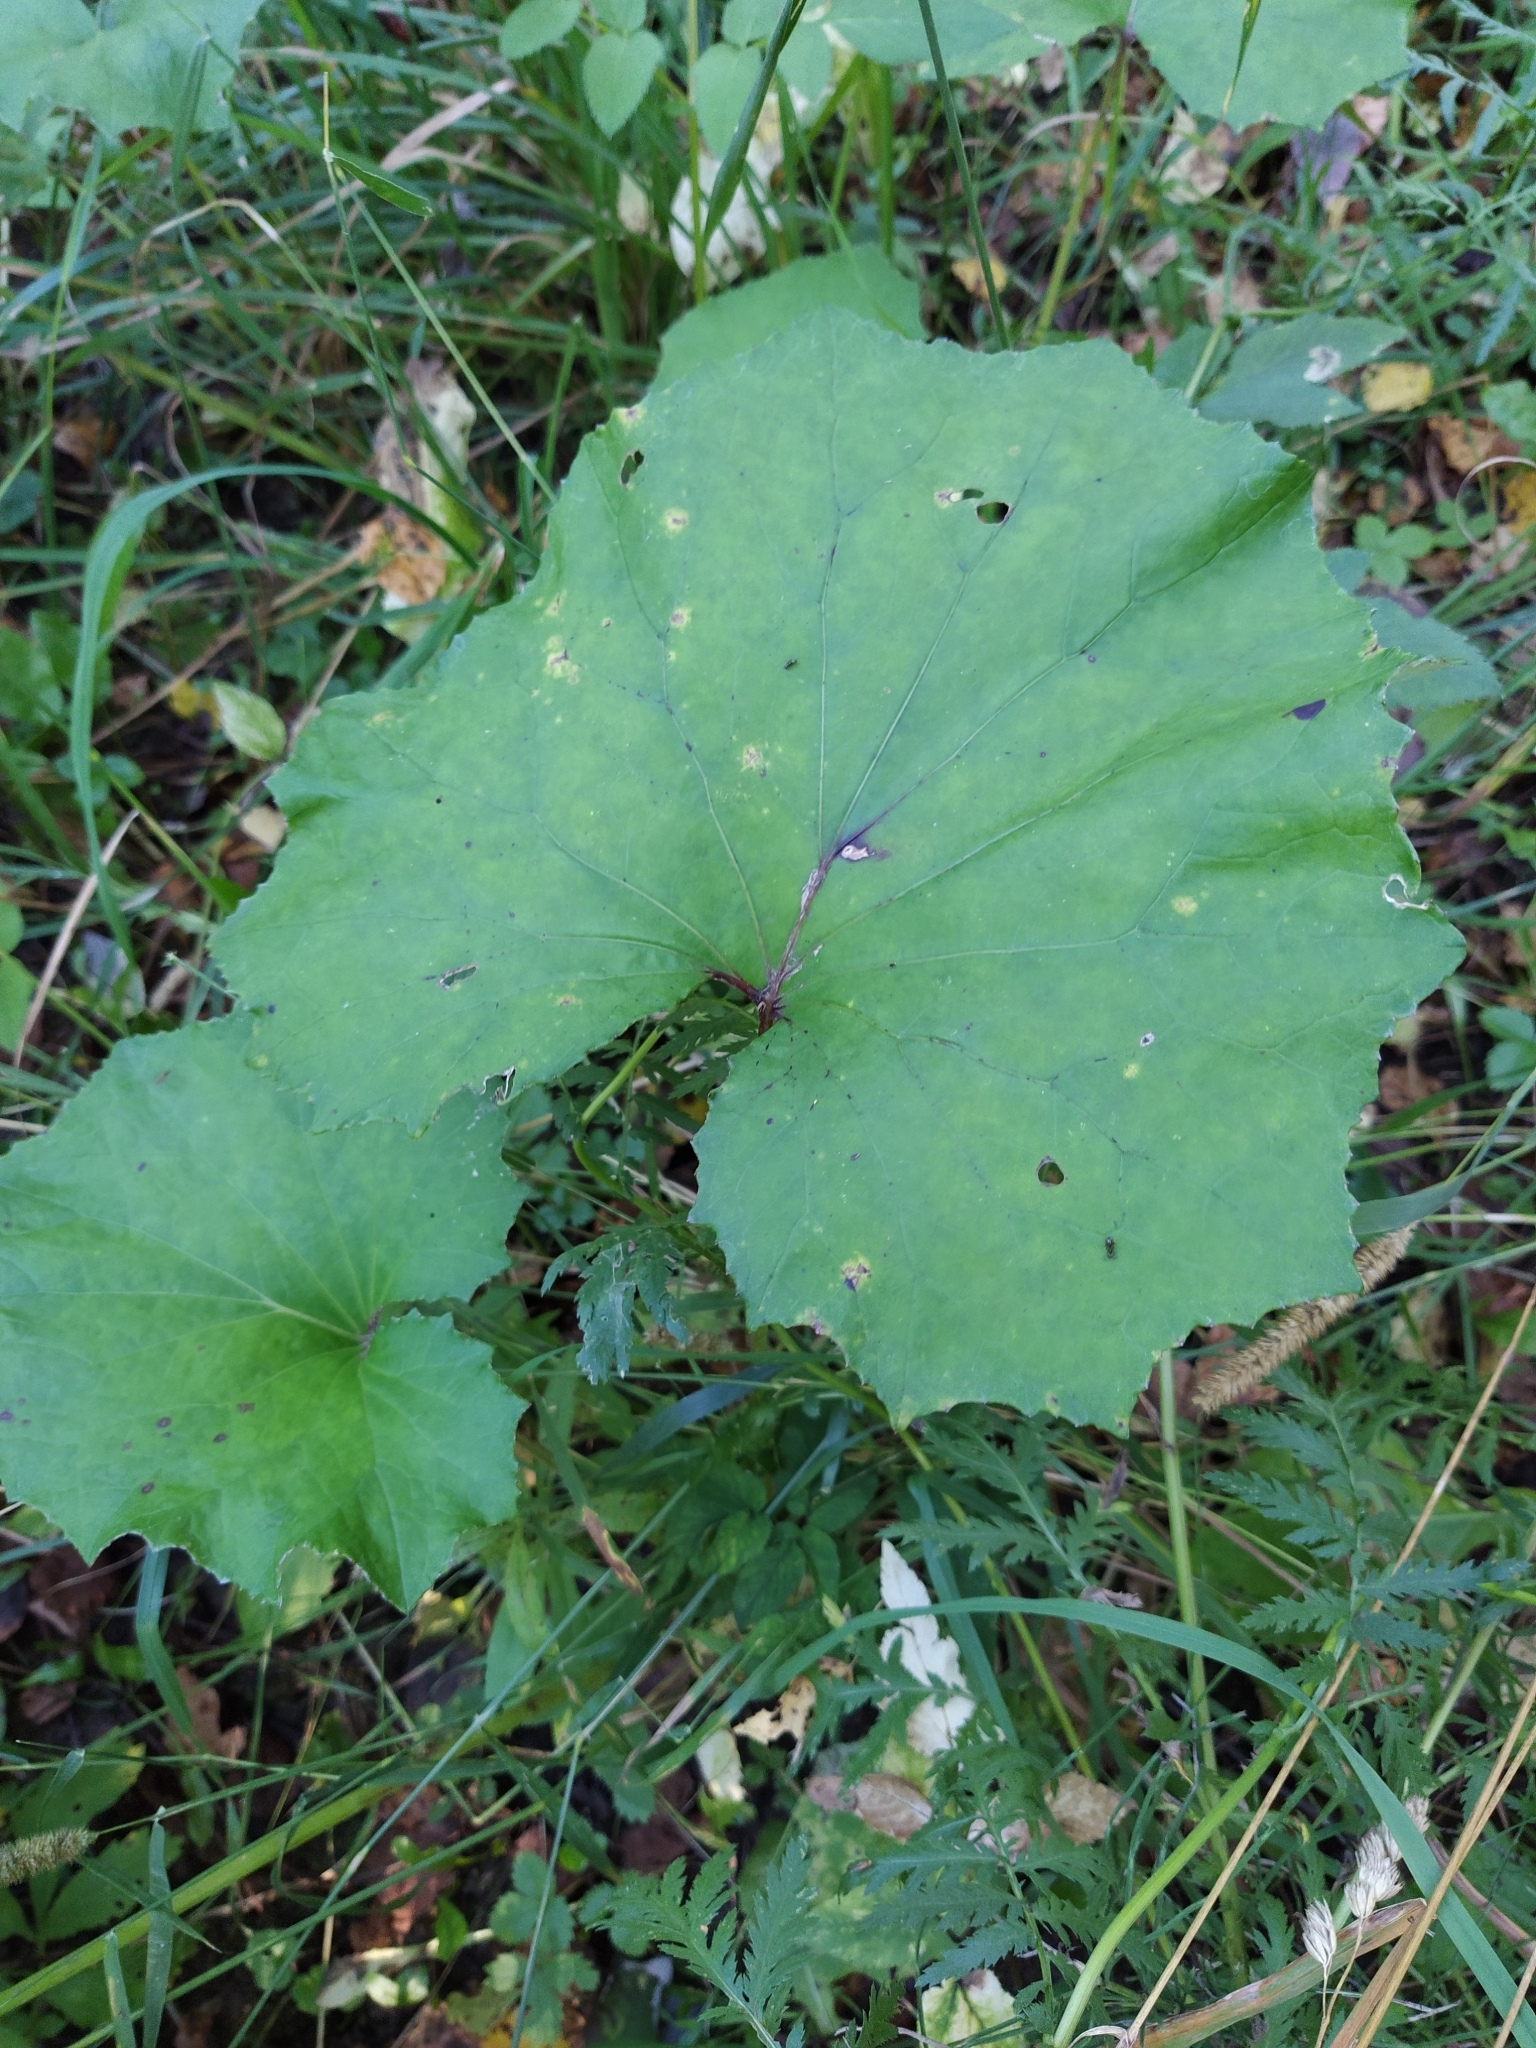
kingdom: Plantae
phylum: Tracheophyta
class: Magnoliopsida
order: Asterales
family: Asteraceae
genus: Tussilago
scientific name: Tussilago farfara
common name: Coltsfoot
